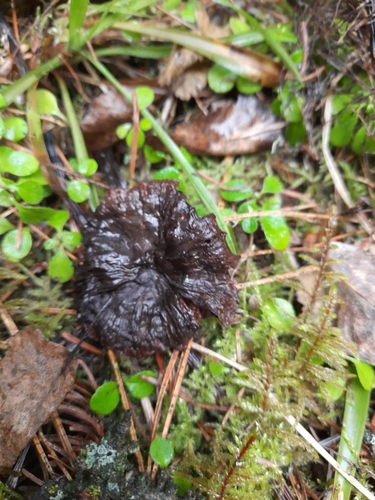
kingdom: Fungi
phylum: Basidiomycota
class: Agaricomycetes
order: Agaricales
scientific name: Agaricales
